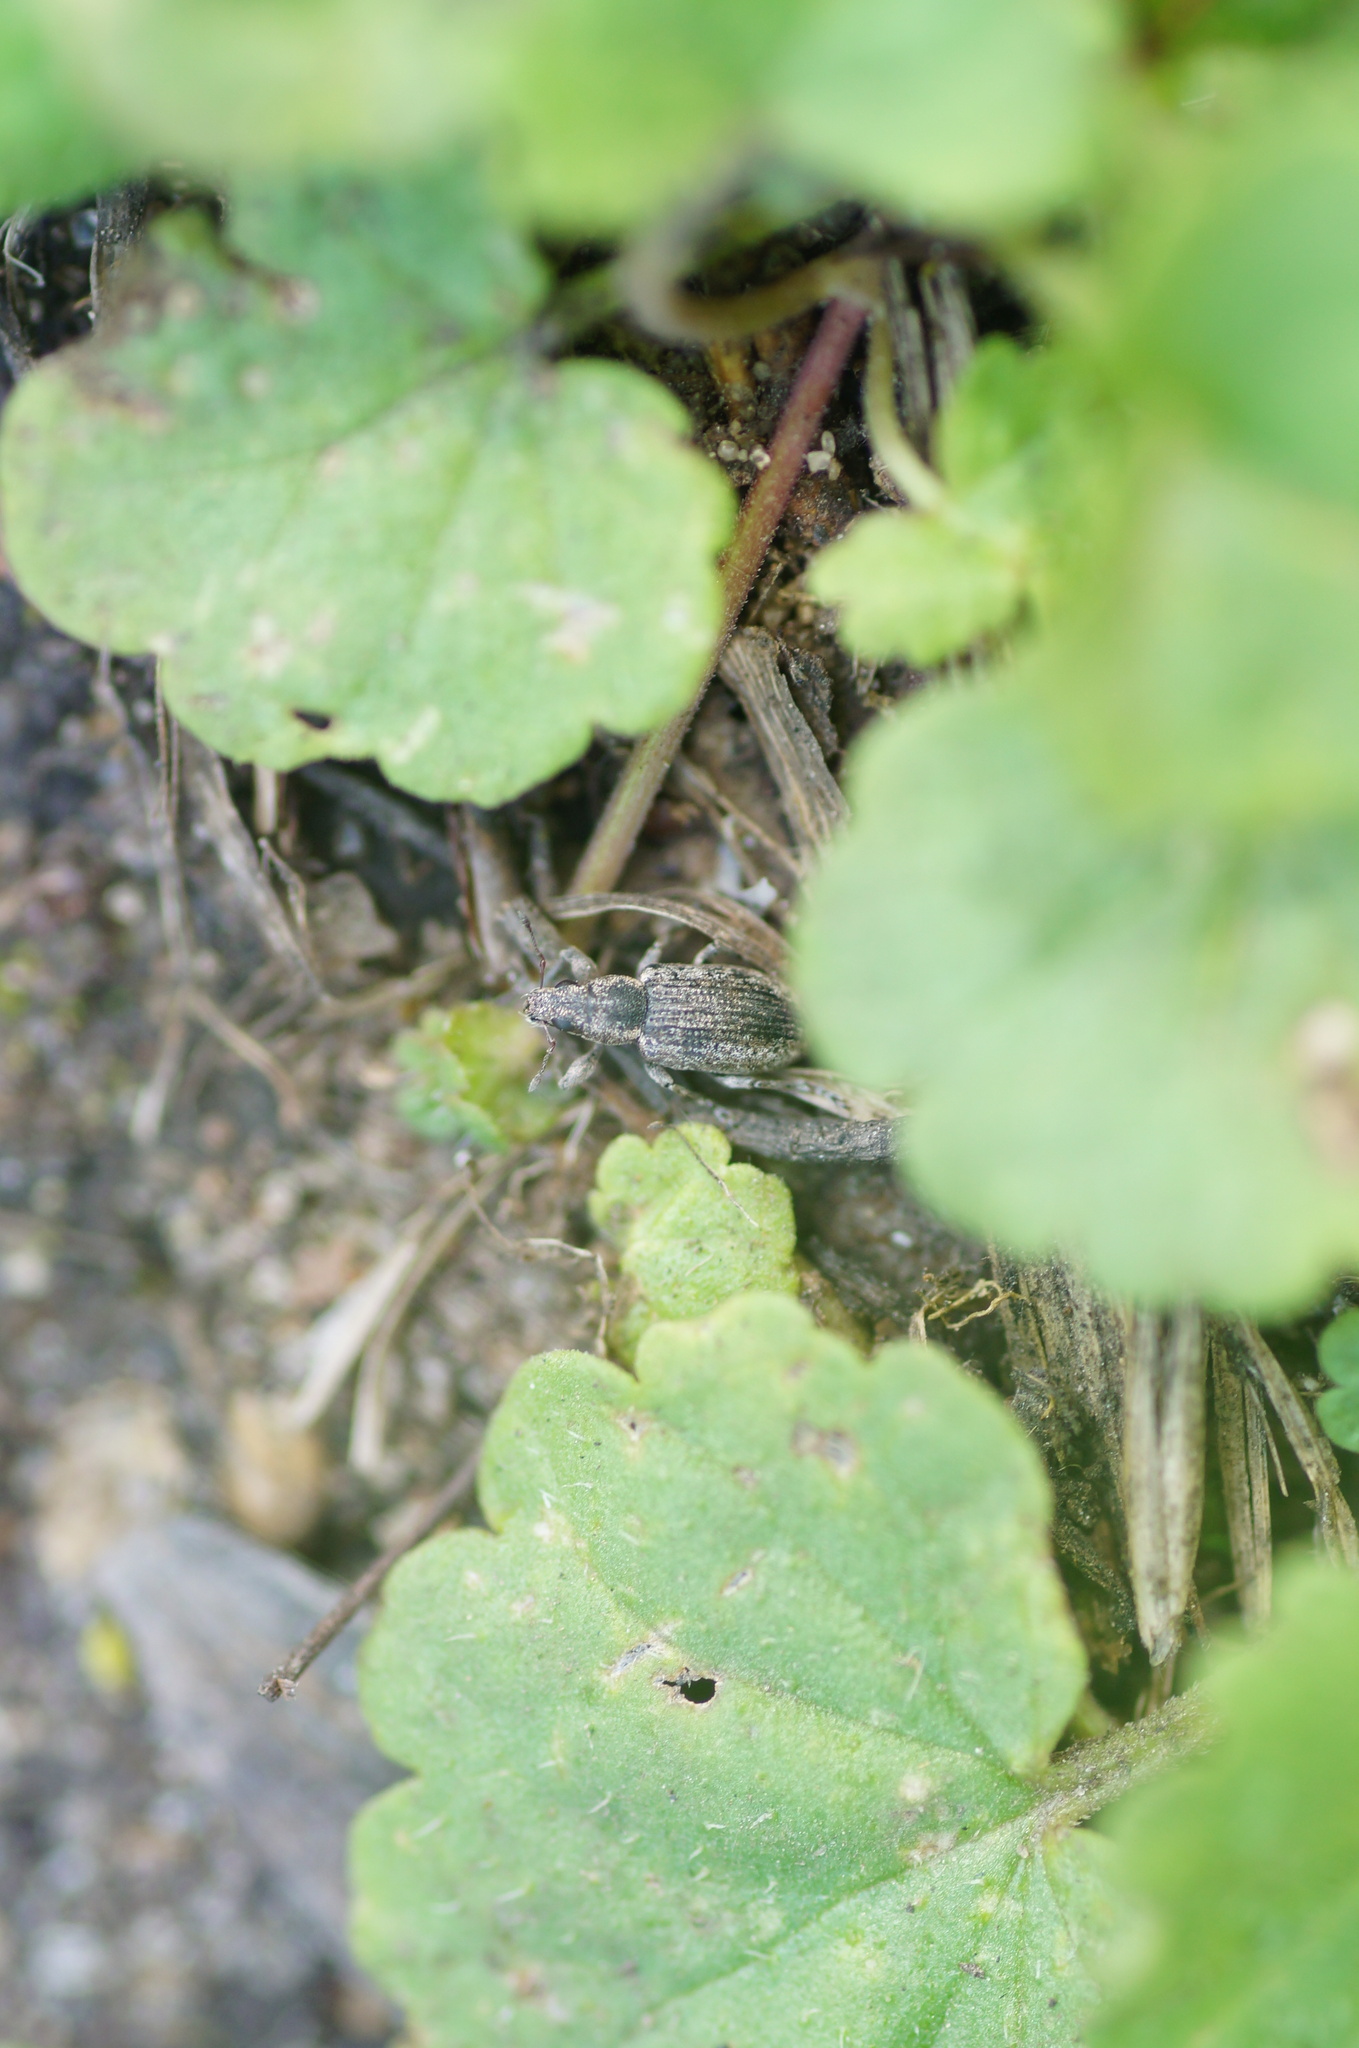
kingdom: Animalia
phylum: Arthropoda
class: Insecta
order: Coleoptera
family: Curculionidae
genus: Sitona
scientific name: Sitona
